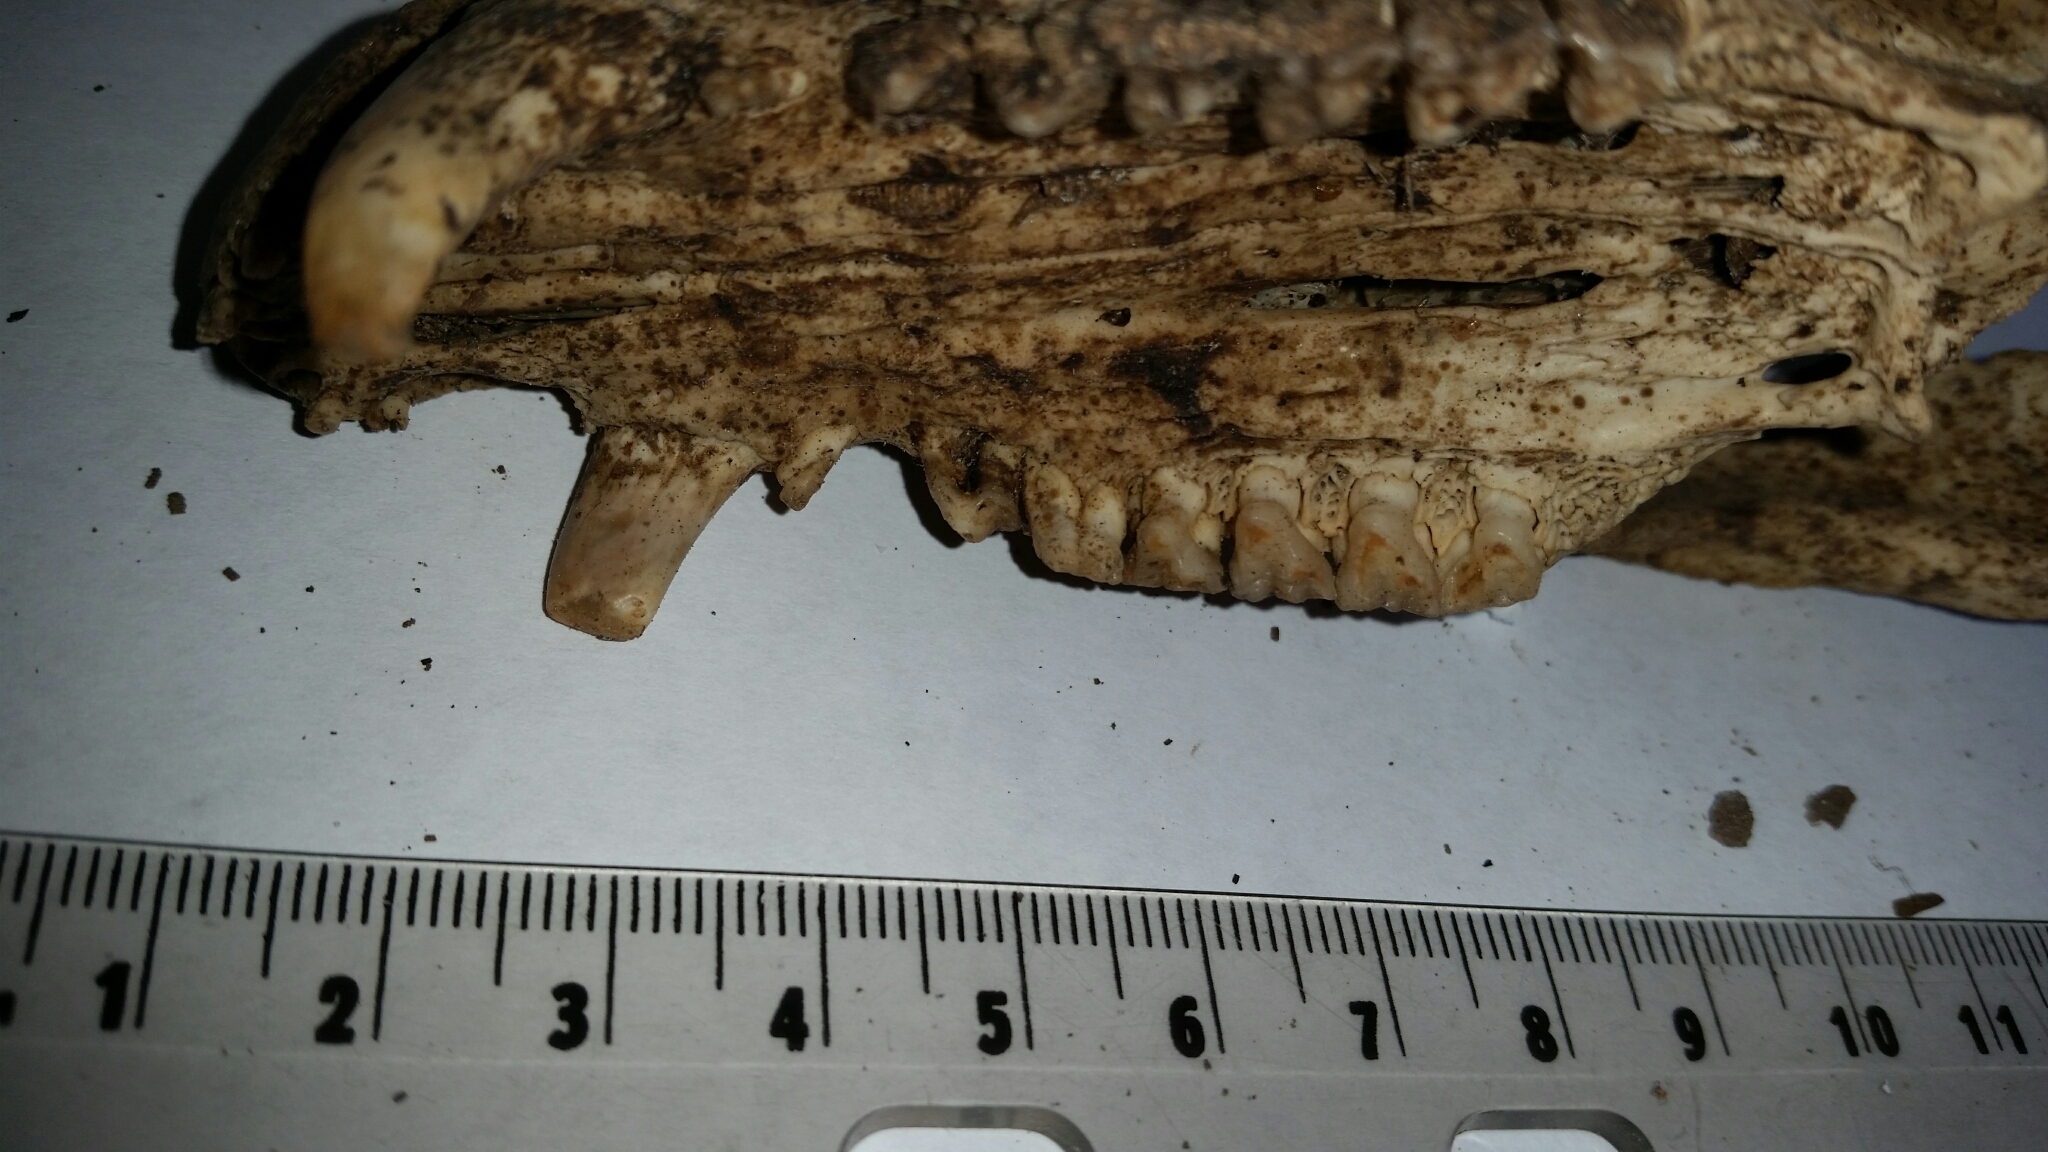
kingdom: Animalia
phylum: Chordata
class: Mammalia
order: Didelphimorphia
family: Didelphidae
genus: Didelphis
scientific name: Didelphis virginiana
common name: Virginia opossum
